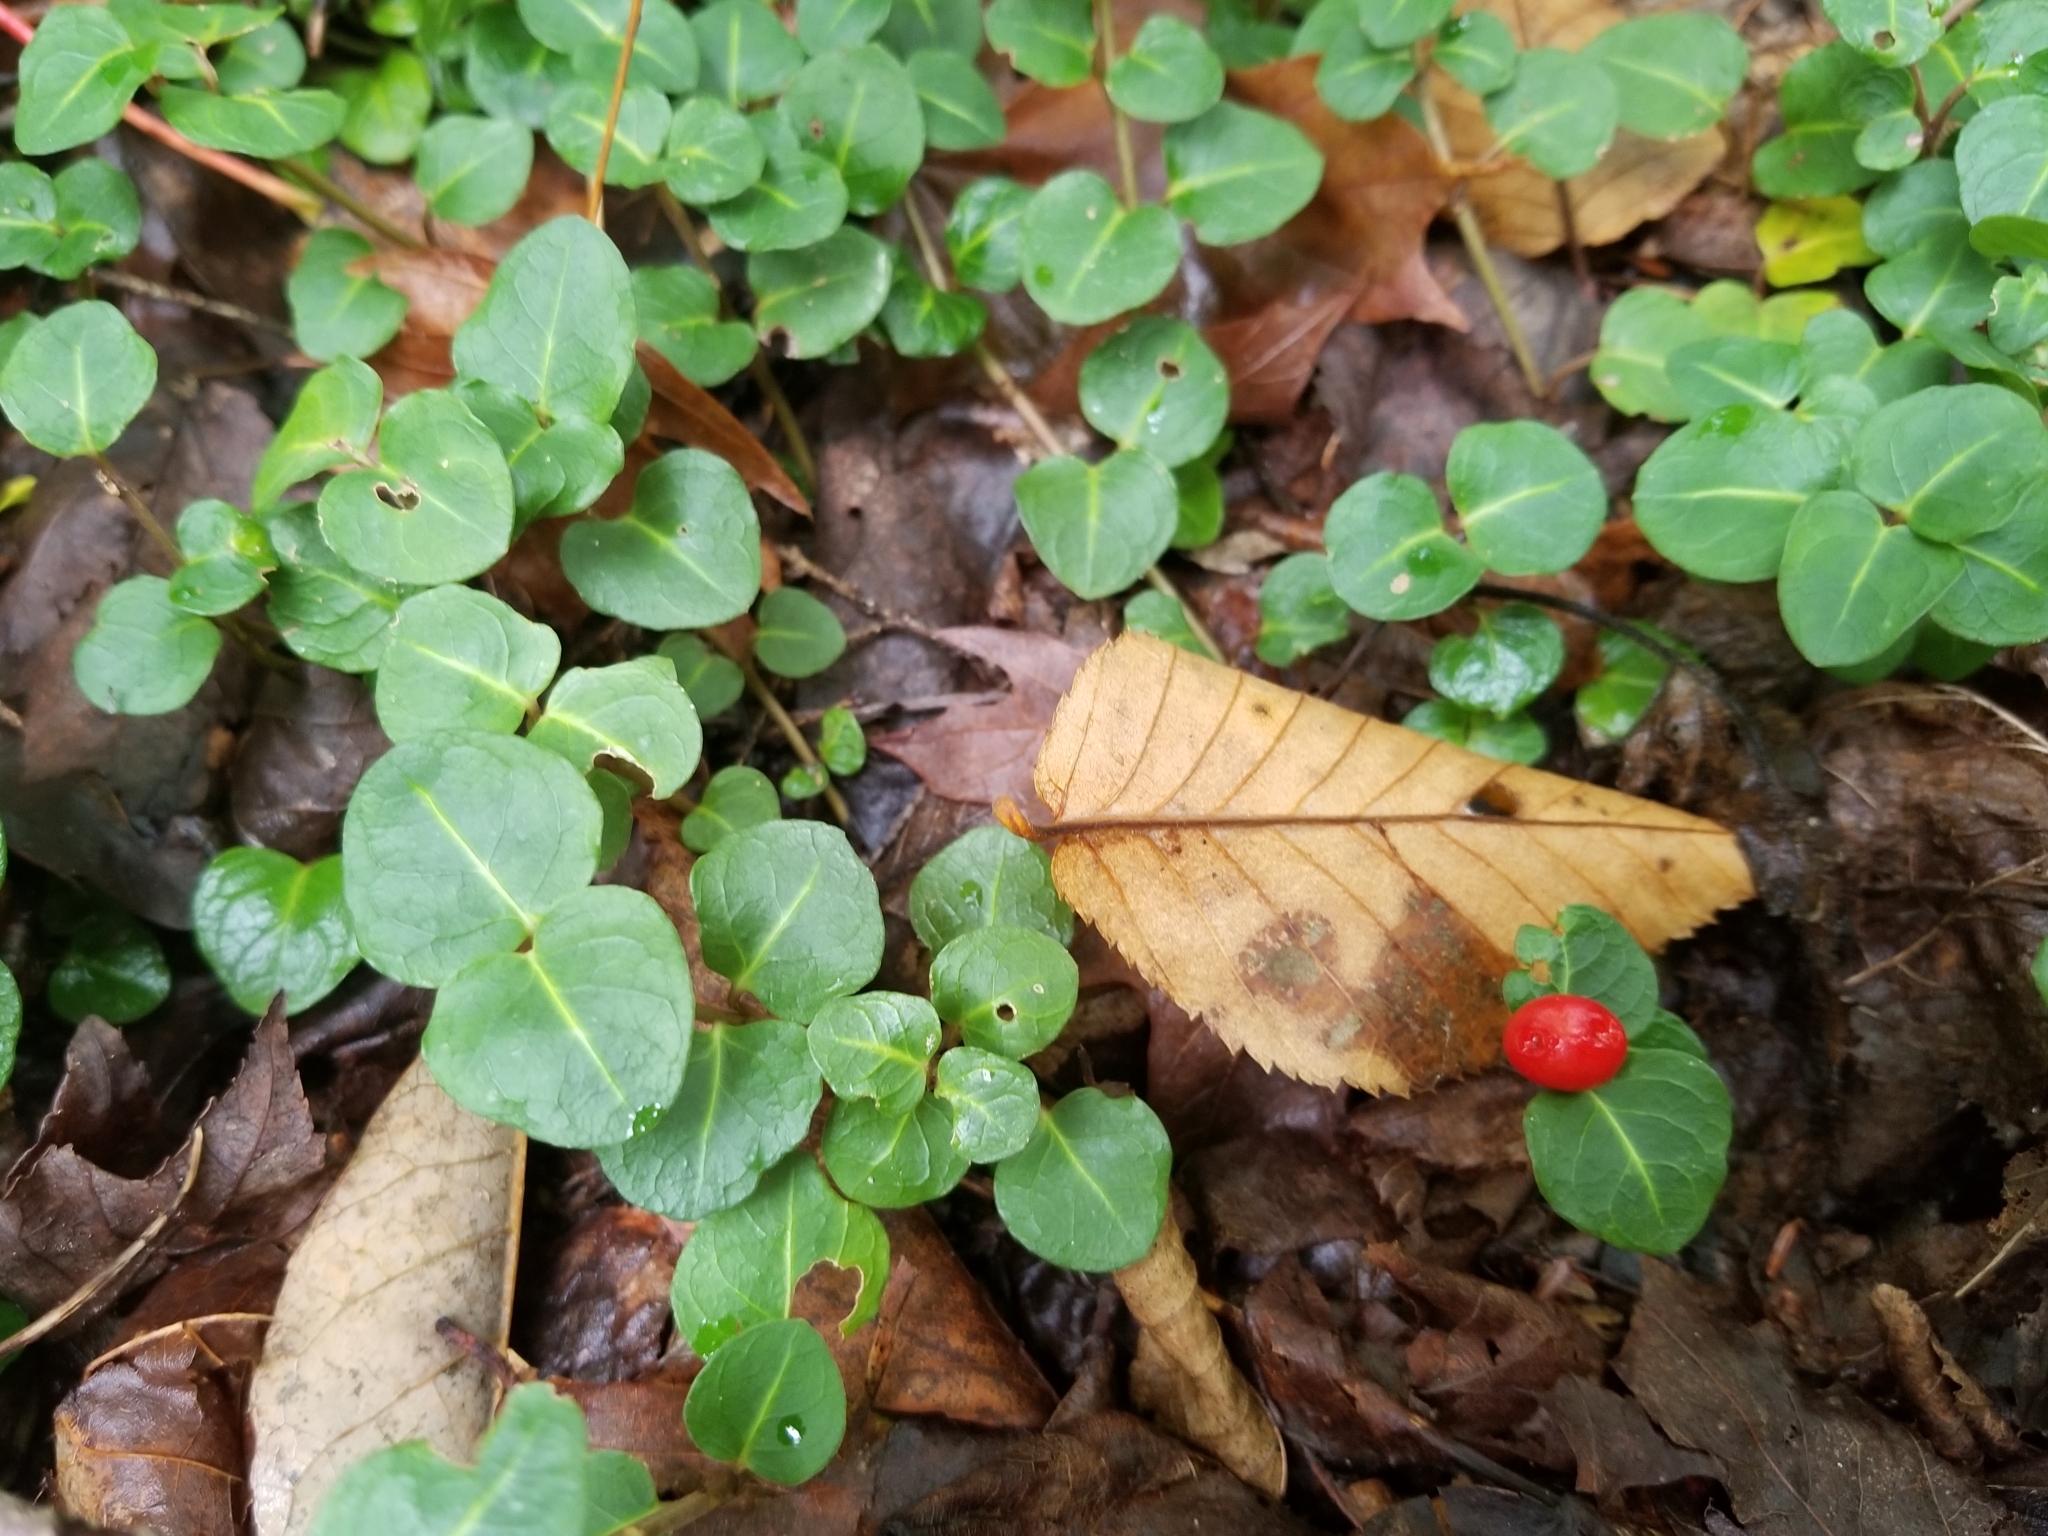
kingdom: Plantae
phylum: Tracheophyta
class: Magnoliopsida
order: Gentianales
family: Rubiaceae
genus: Mitchella
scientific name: Mitchella repens
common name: Partridge-berry
